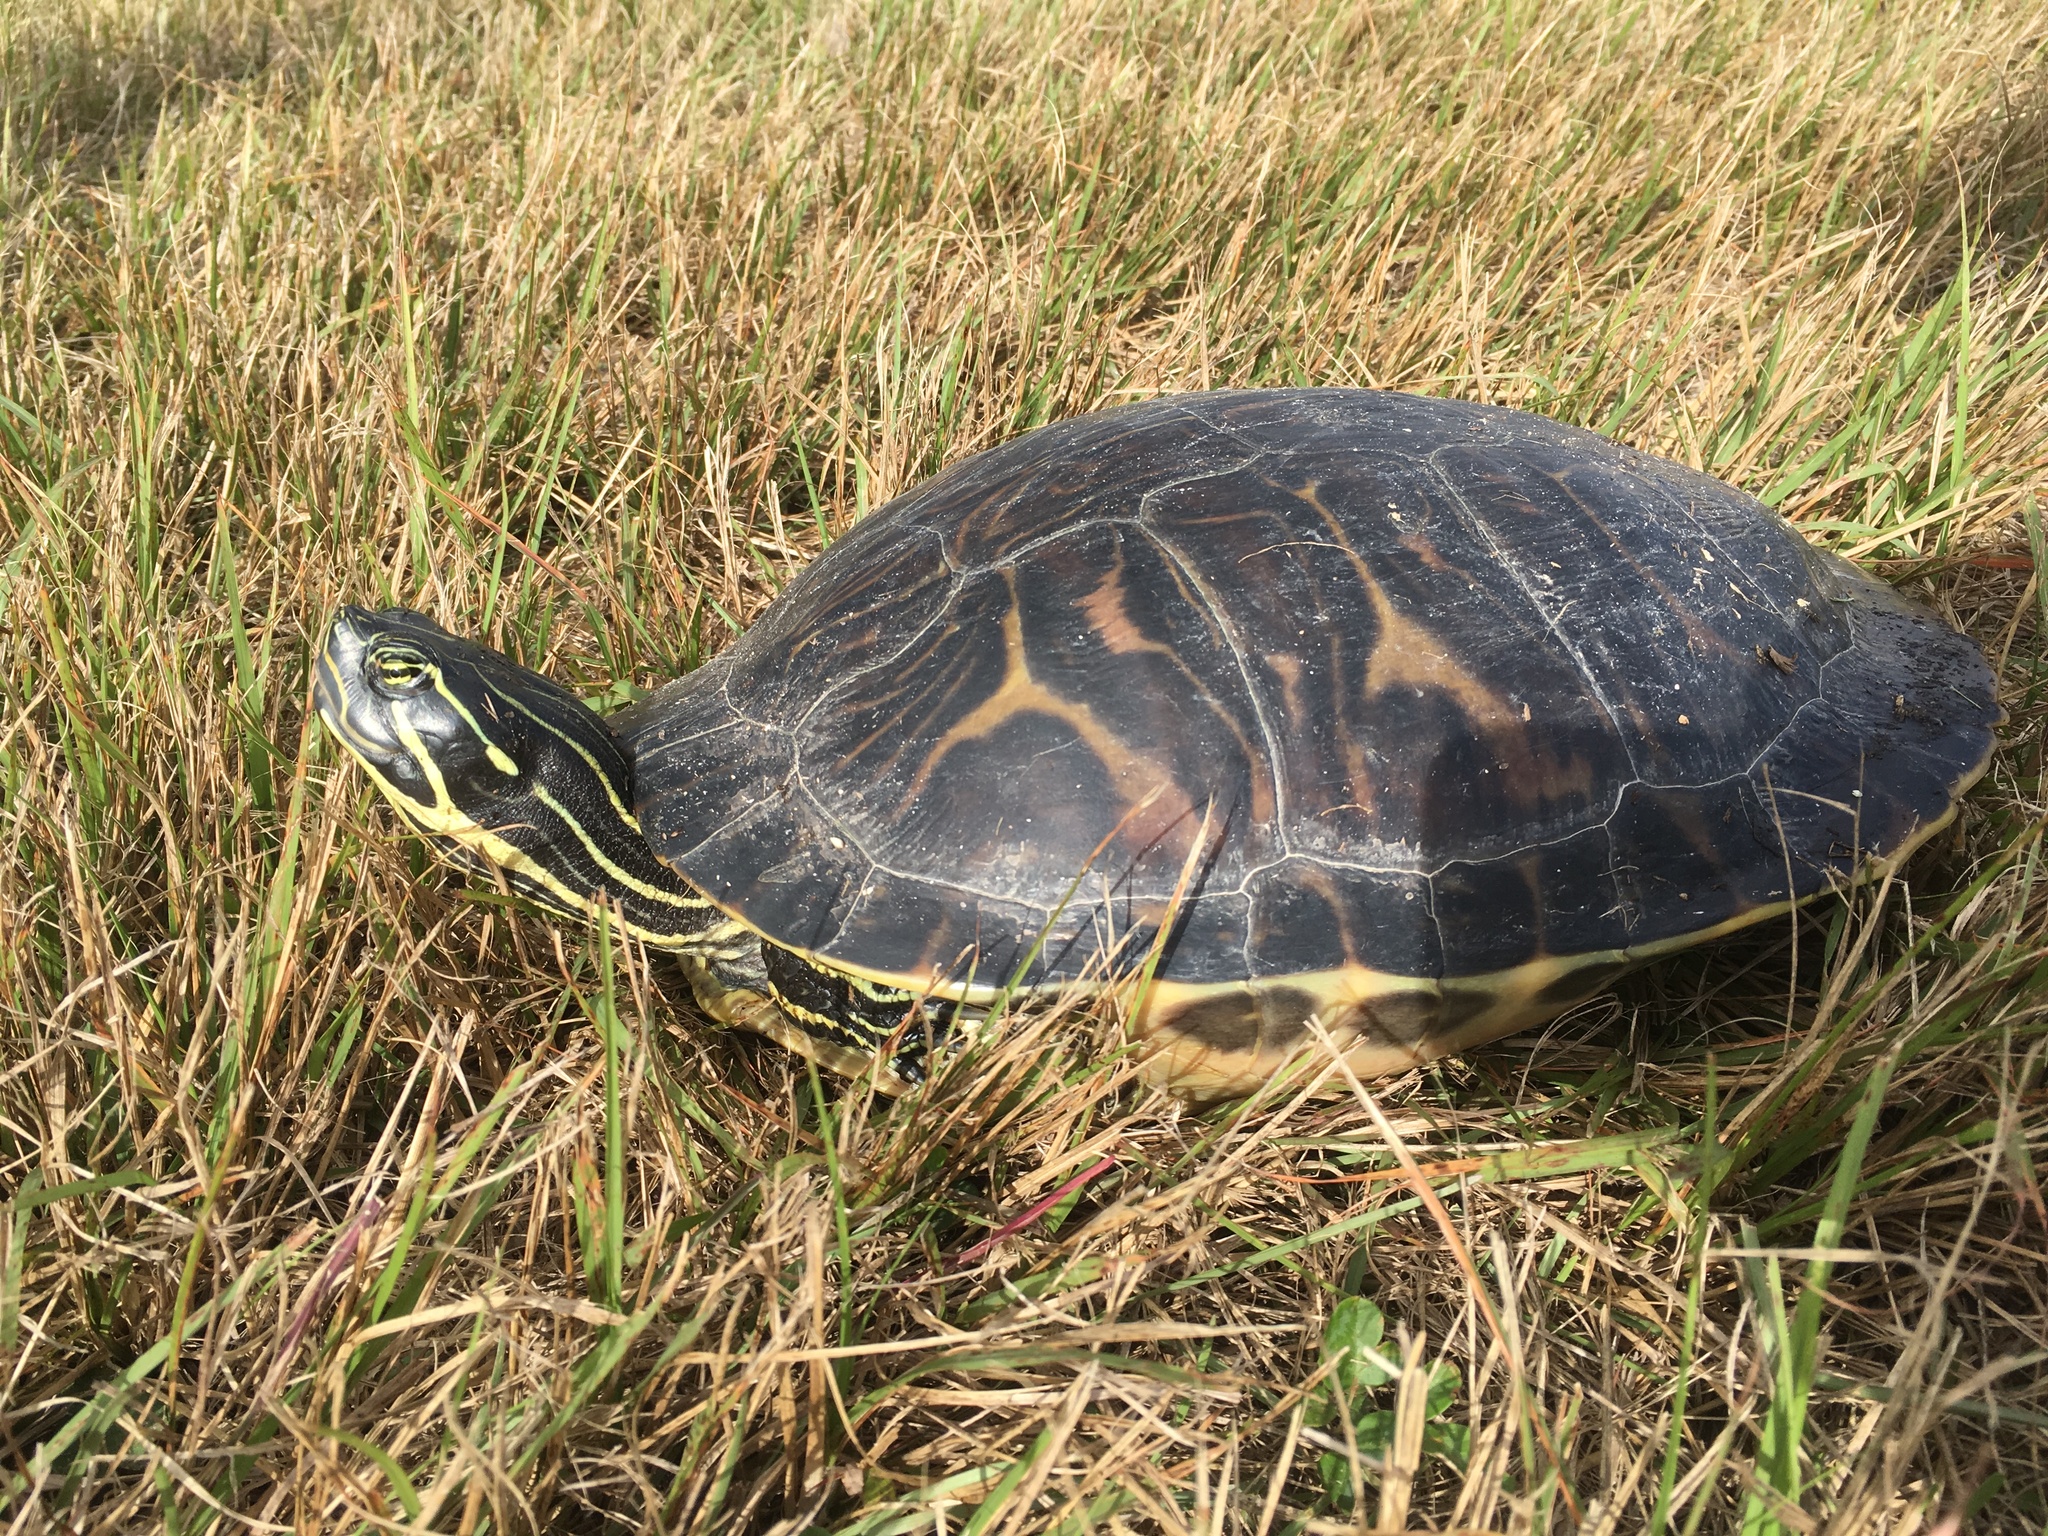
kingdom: Animalia
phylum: Chordata
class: Testudines
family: Emydidae
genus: Pseudemys
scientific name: Pseudemys peninsularis
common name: Peninsula cooter
